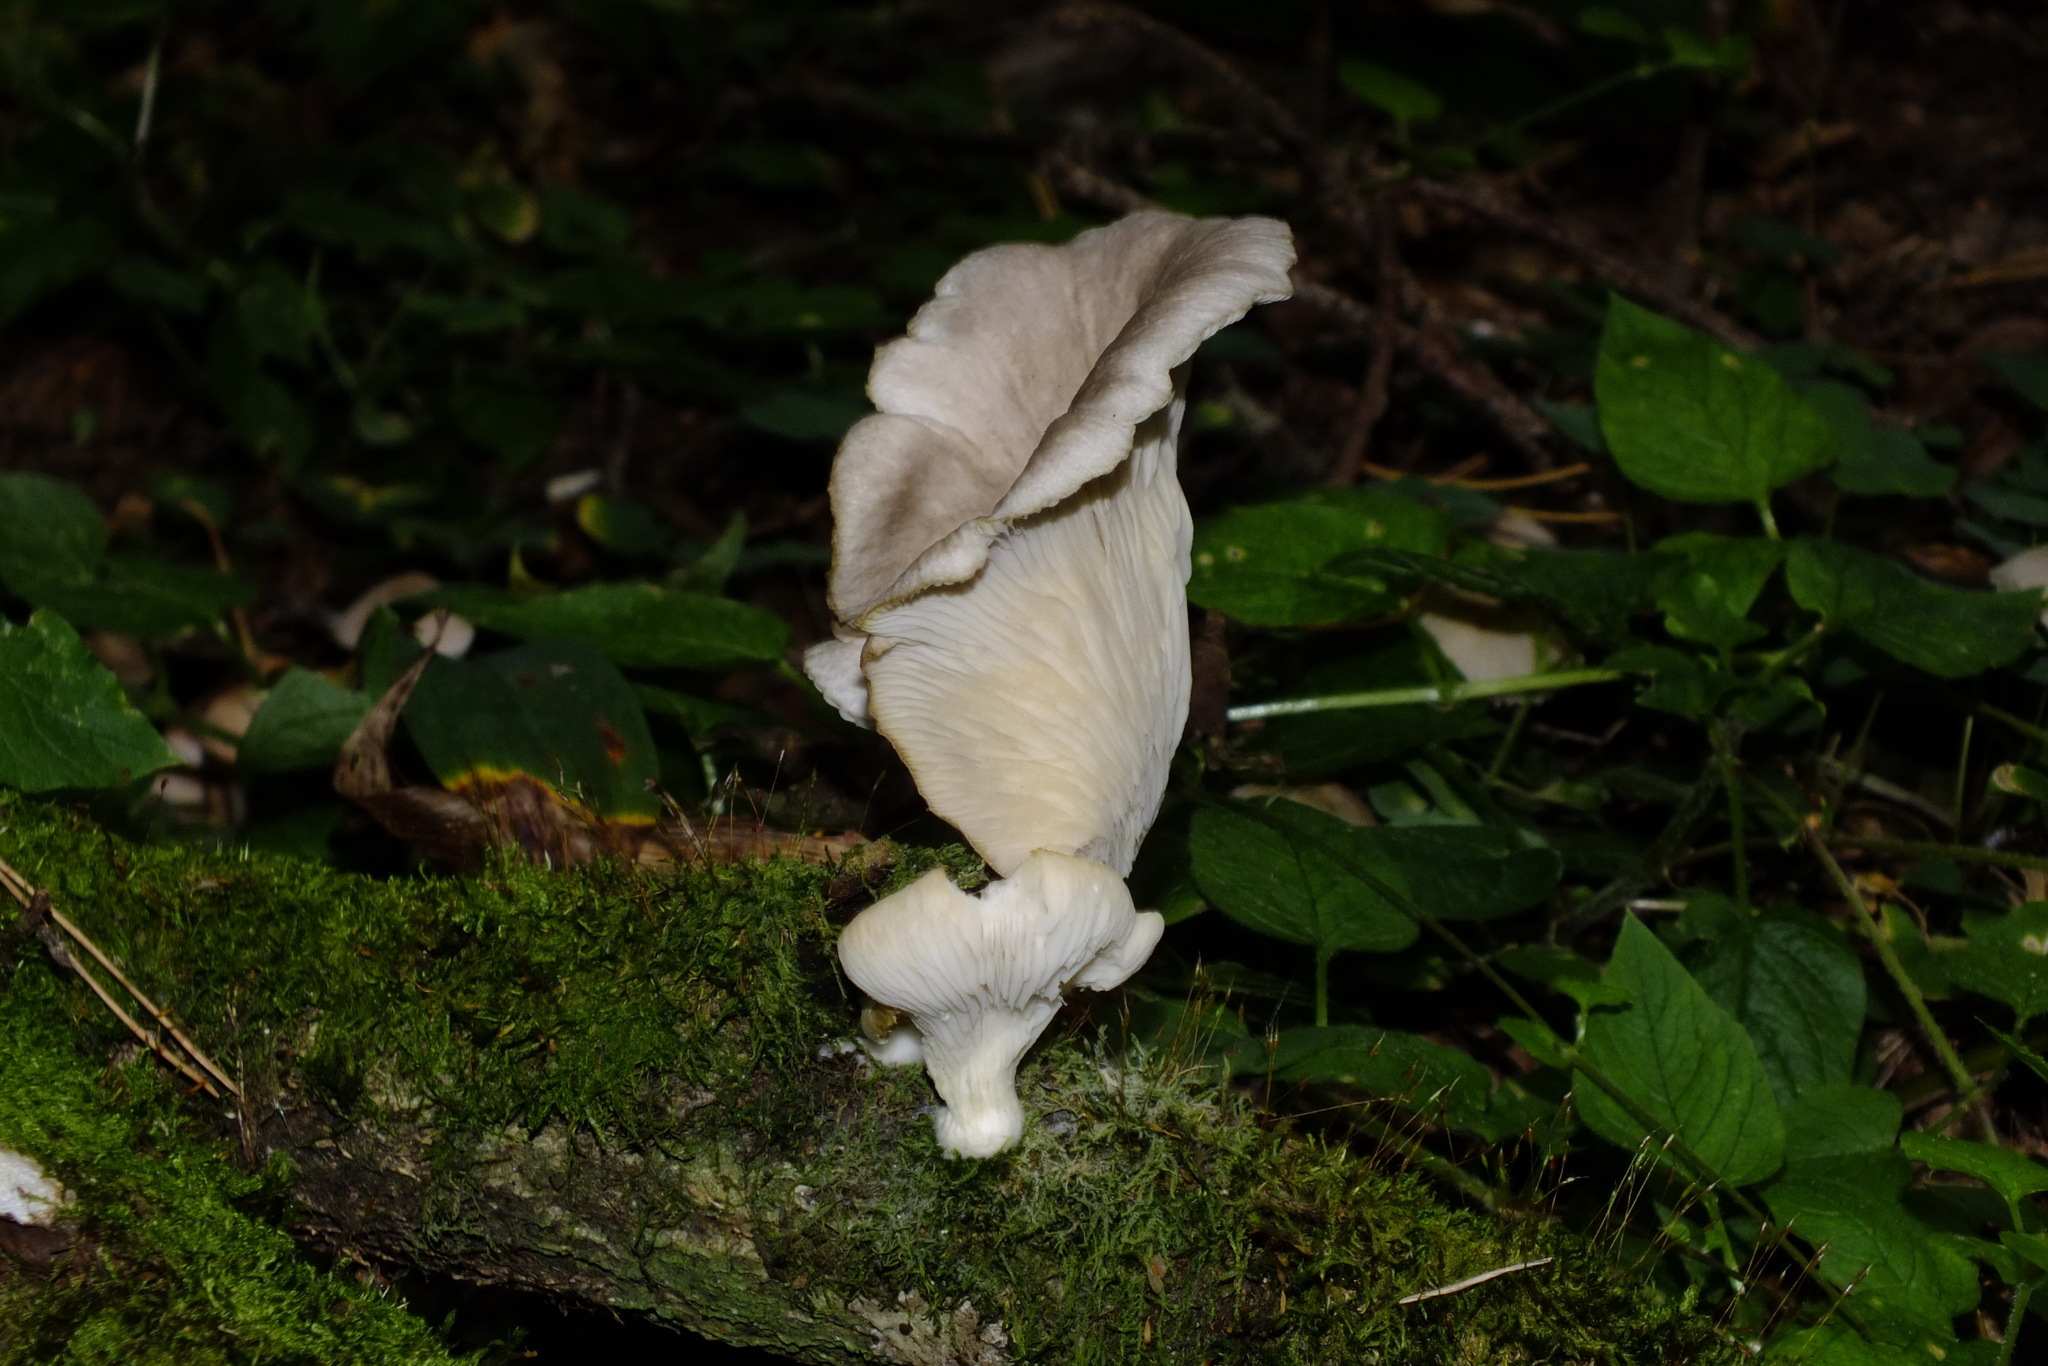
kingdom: Fungi
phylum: Basidiomycota
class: Agaricomycetes
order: Agaricales
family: Pleurotaceae
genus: Pleurotus
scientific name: Pleurotus ostreatus
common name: Oyster mushroom
